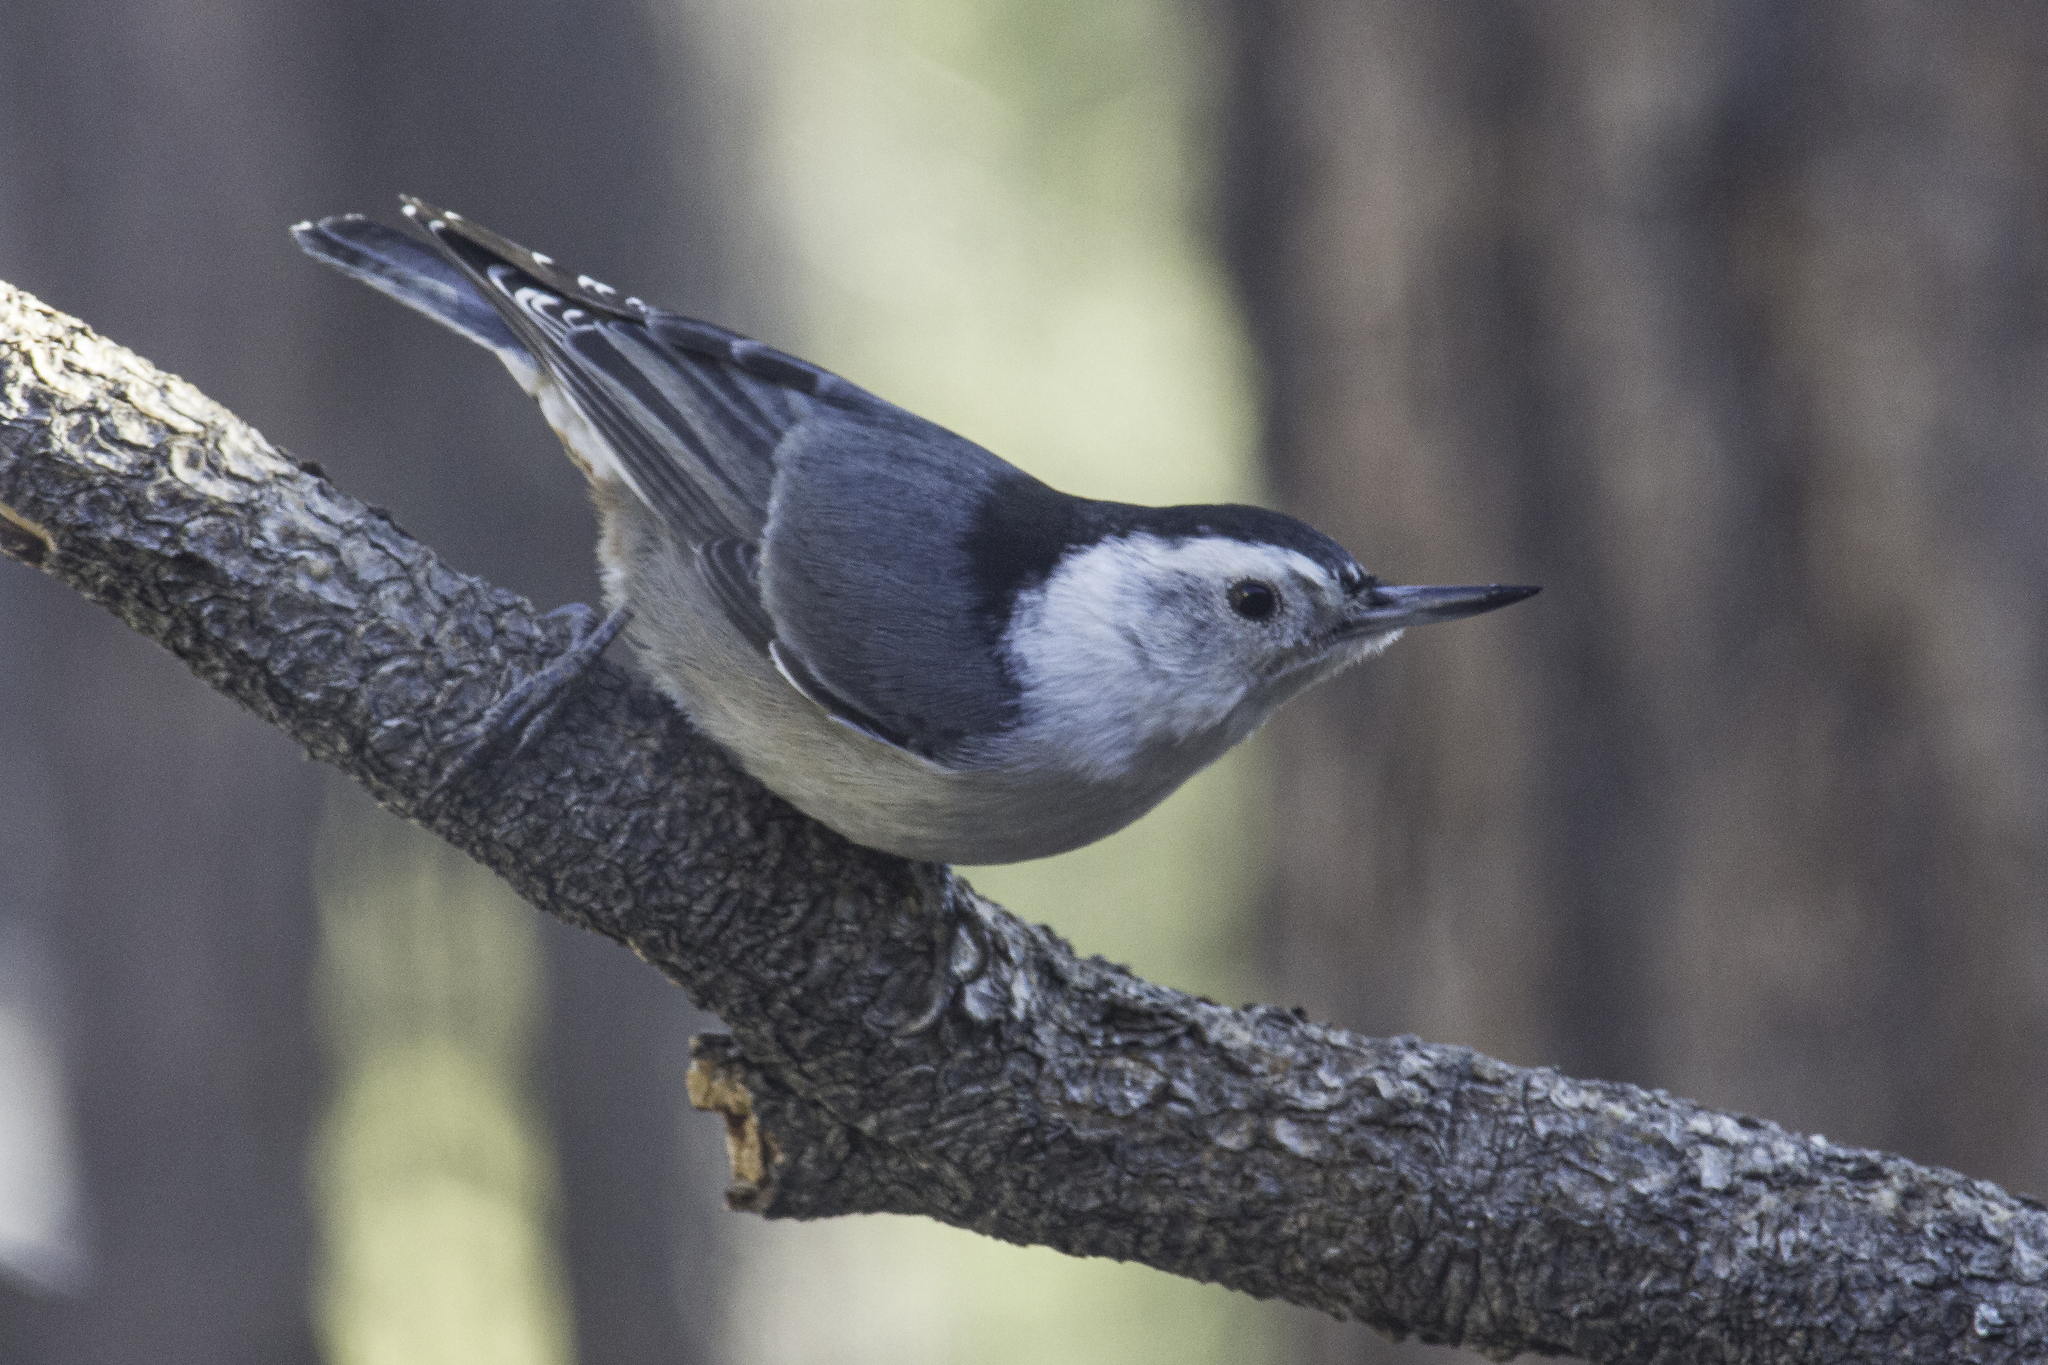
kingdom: Animalia
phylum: Chordata
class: Aves
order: Passeriformes
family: Sittidae
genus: Sitta
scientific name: Sitta carolinensis
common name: White-breasted nuthatch
